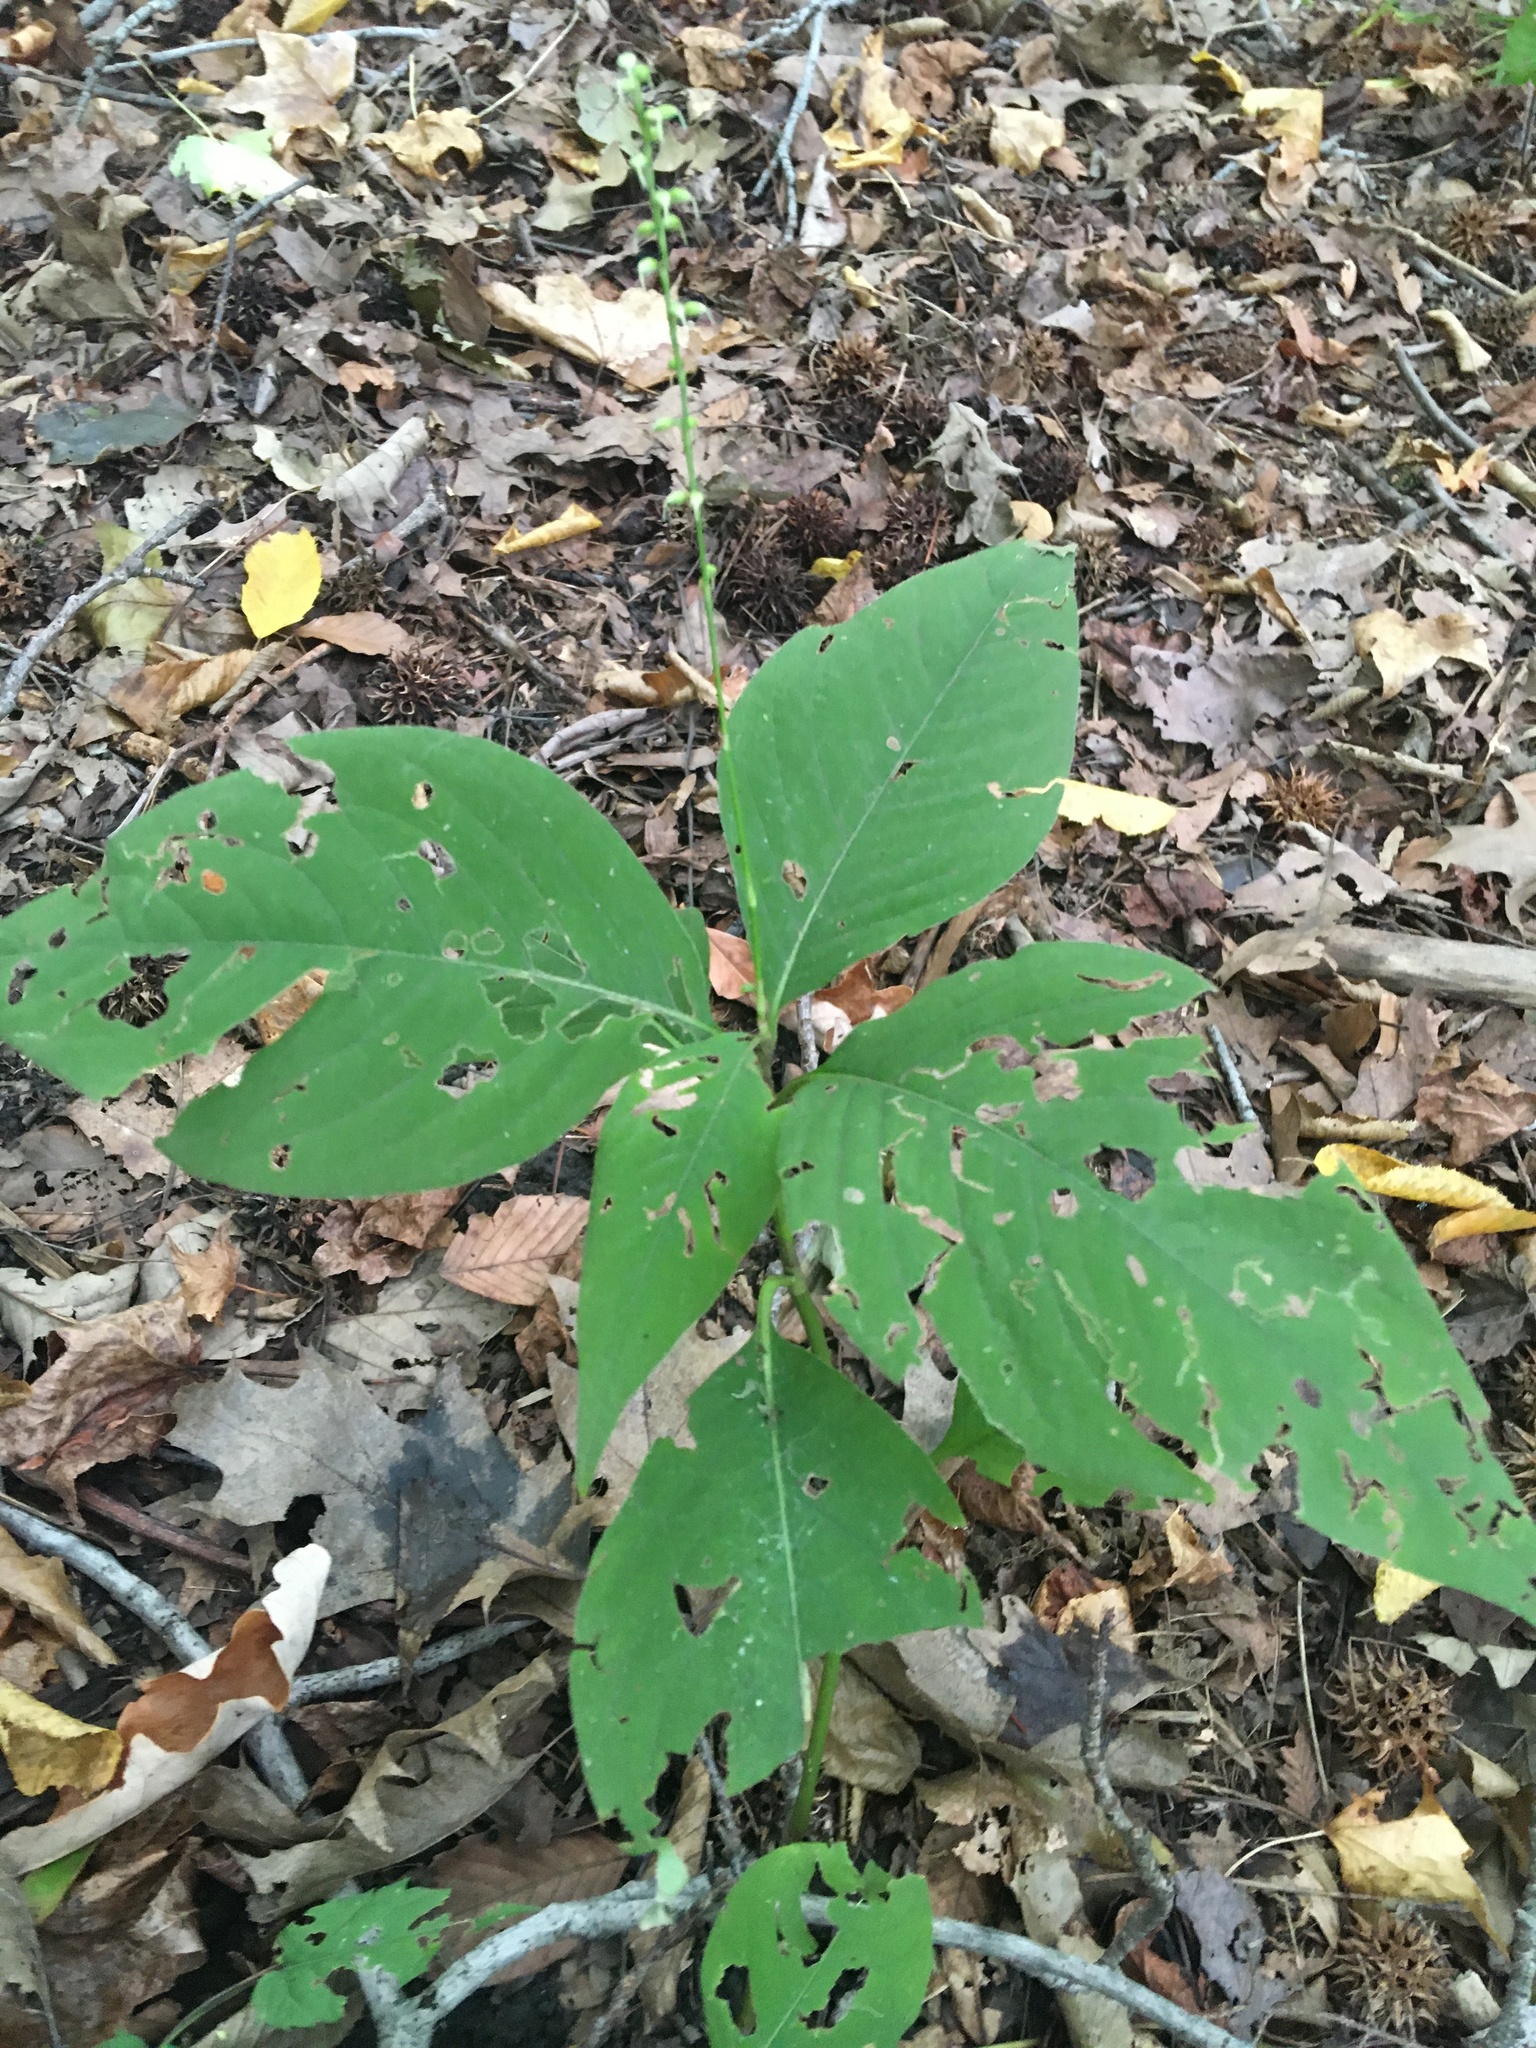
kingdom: Plantae
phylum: Tracheophyta
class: Magnoliopsida
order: Caryophyllales
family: Polygonaceae
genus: Persicaria
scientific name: Persicaria virginiana
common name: Jumpseed
